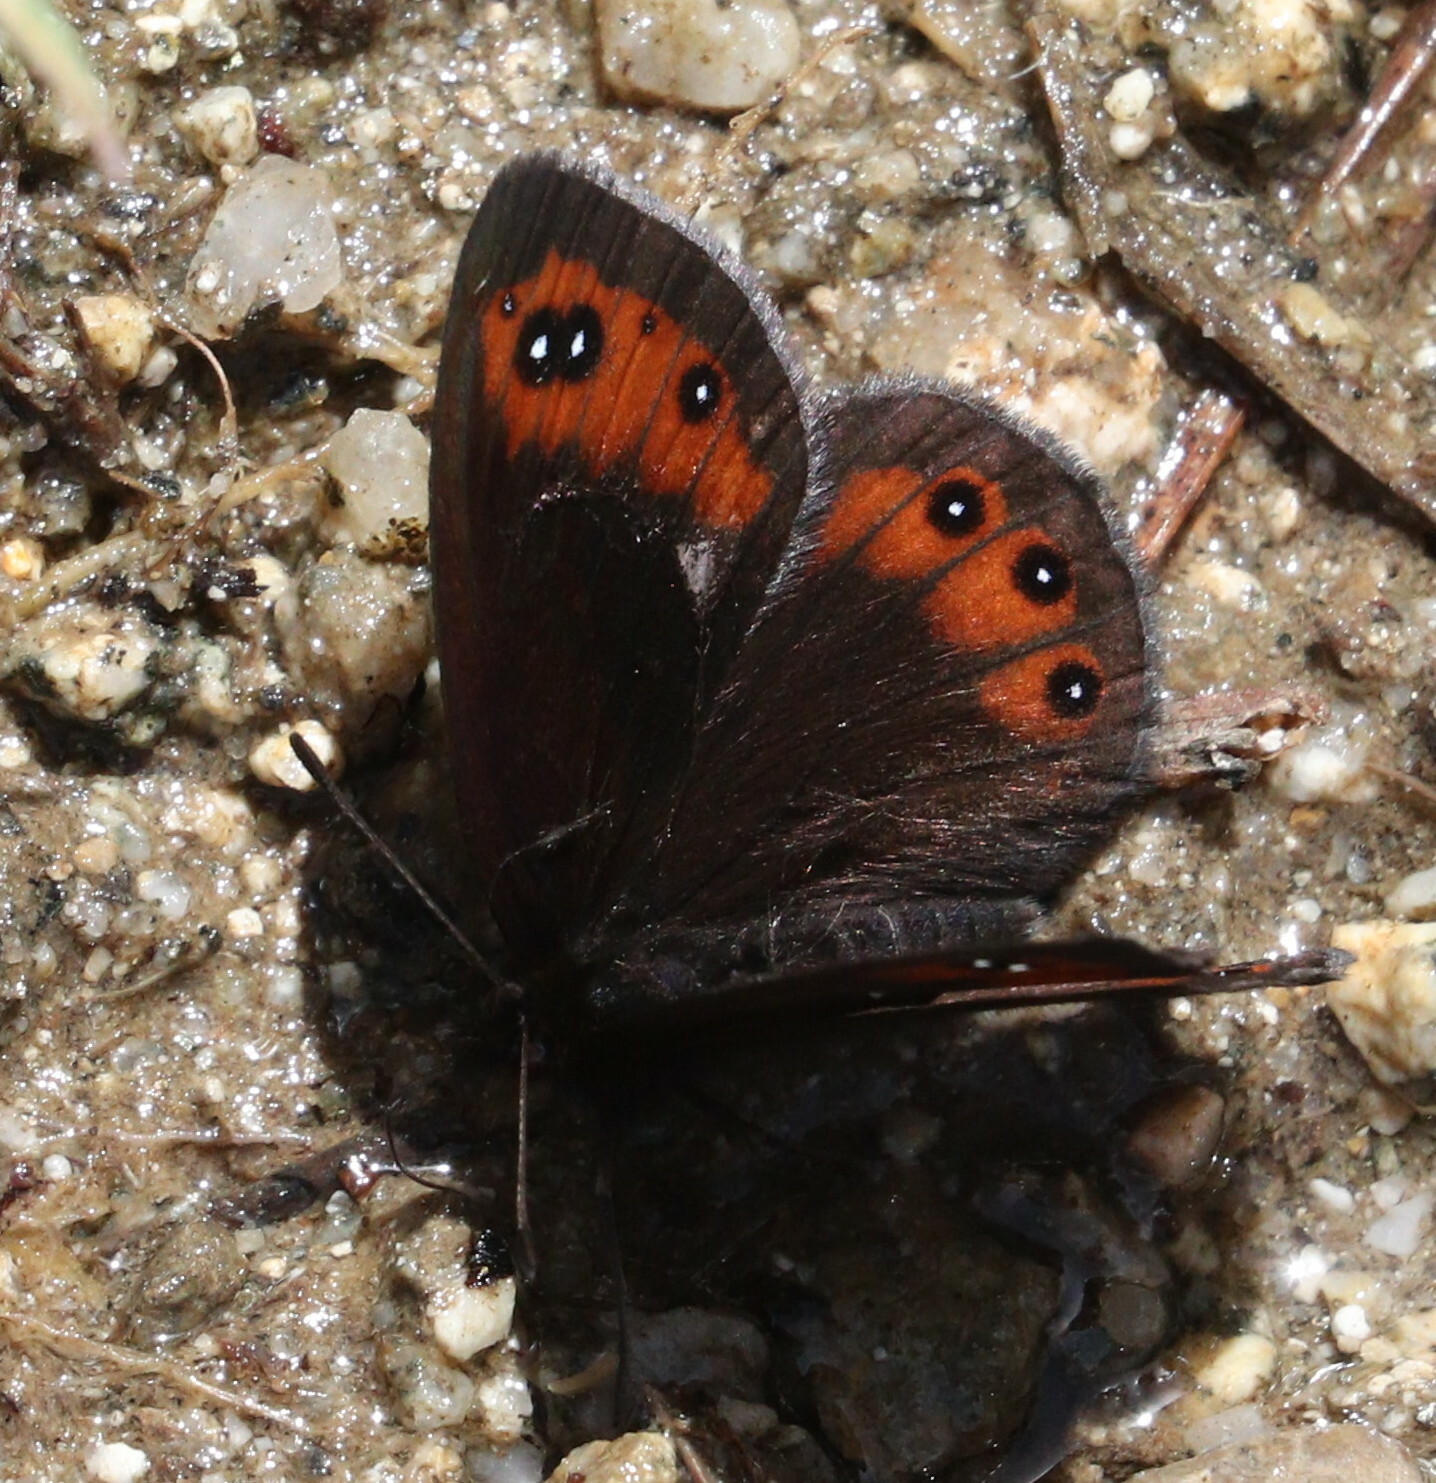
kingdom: Animalia
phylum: Arthropoda
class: Insecta
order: Lepidoptera
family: Nymphalidae
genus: Erebia
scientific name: Erebia meolans
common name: Piedmont ringlet
